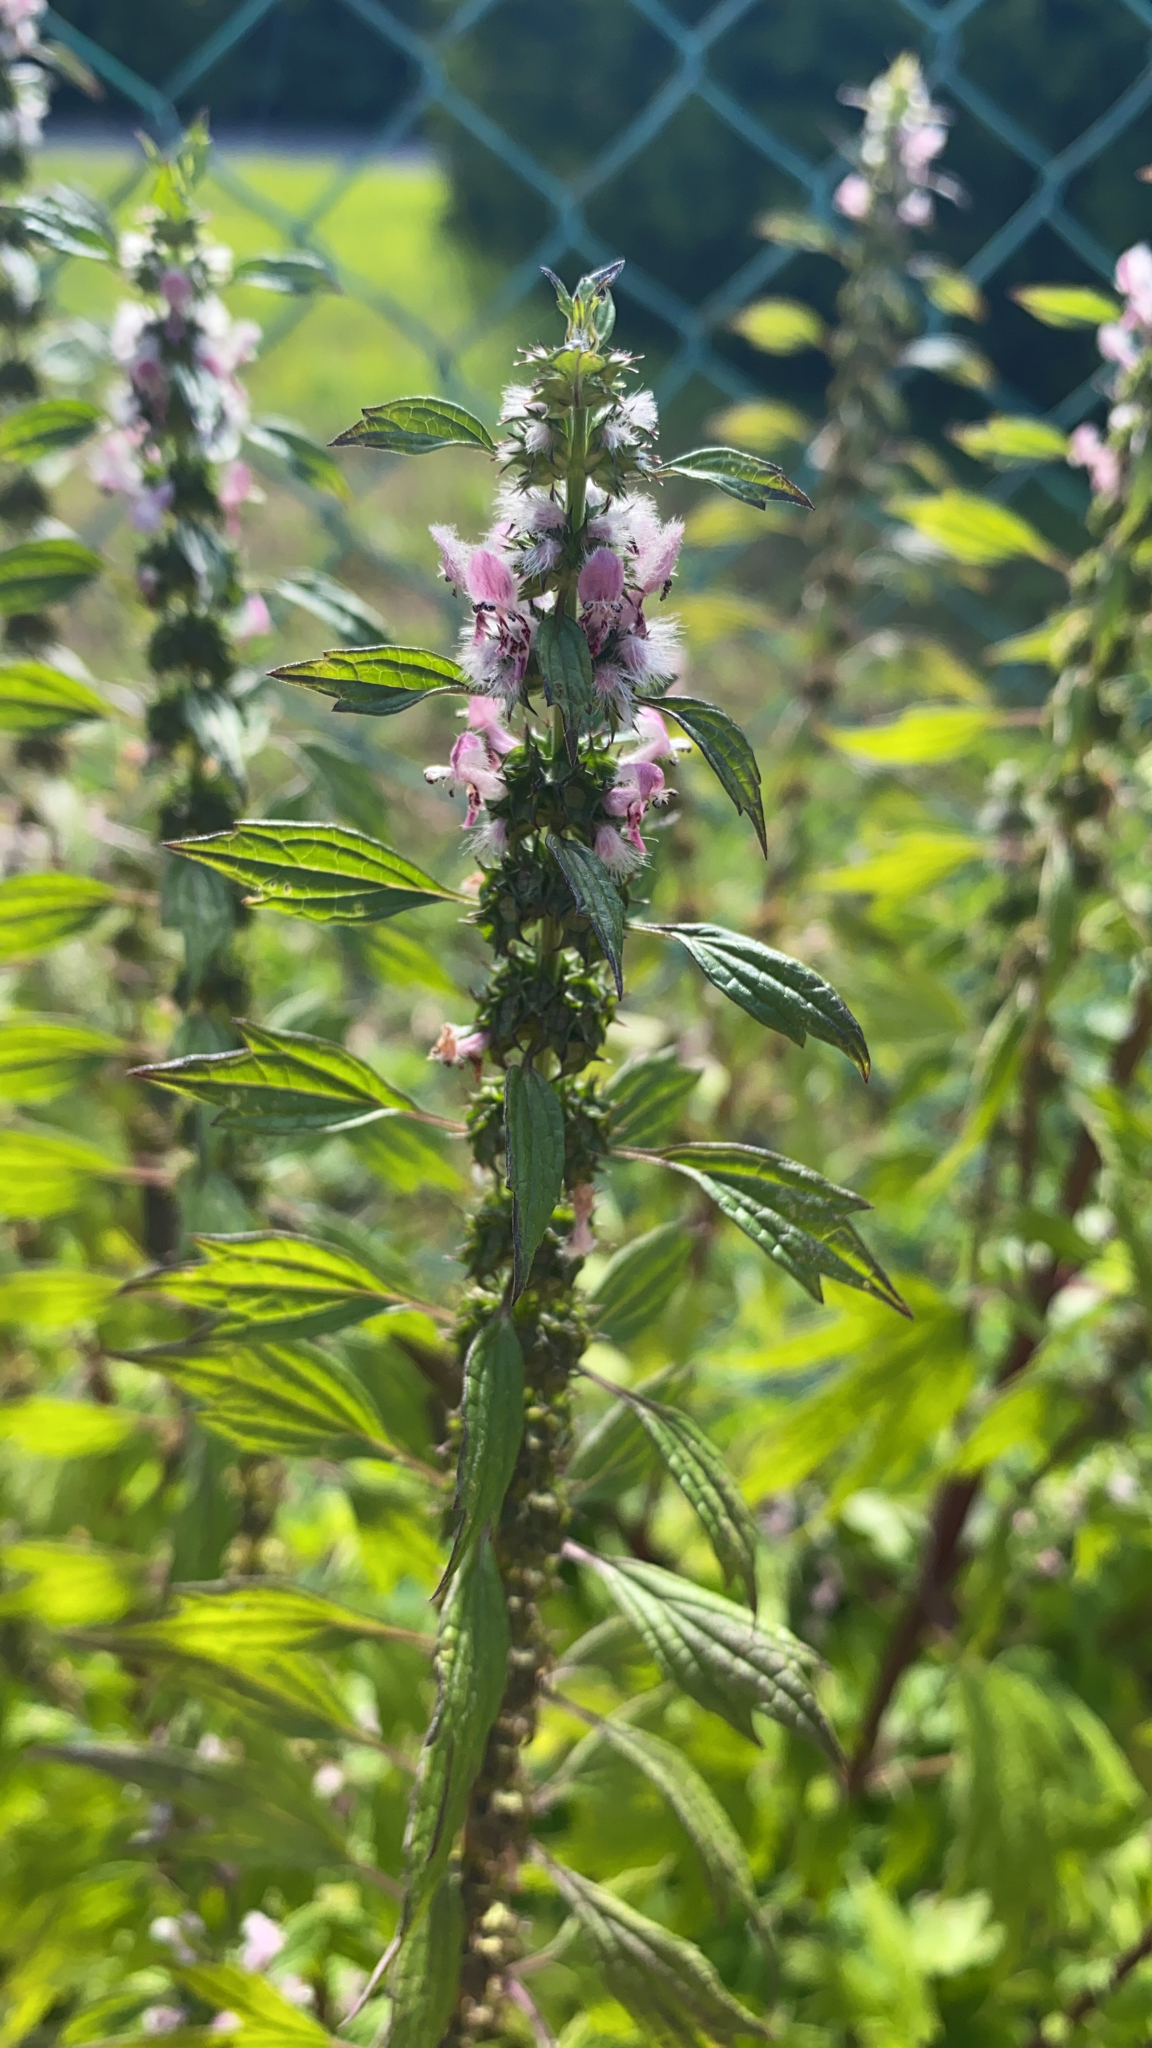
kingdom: Plantae
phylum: Tracheophyta
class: Magnoliopsida
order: Lamiales
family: Lamiaceae
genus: Leonurus
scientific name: Leonurus cardiaca
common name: Motherwort
